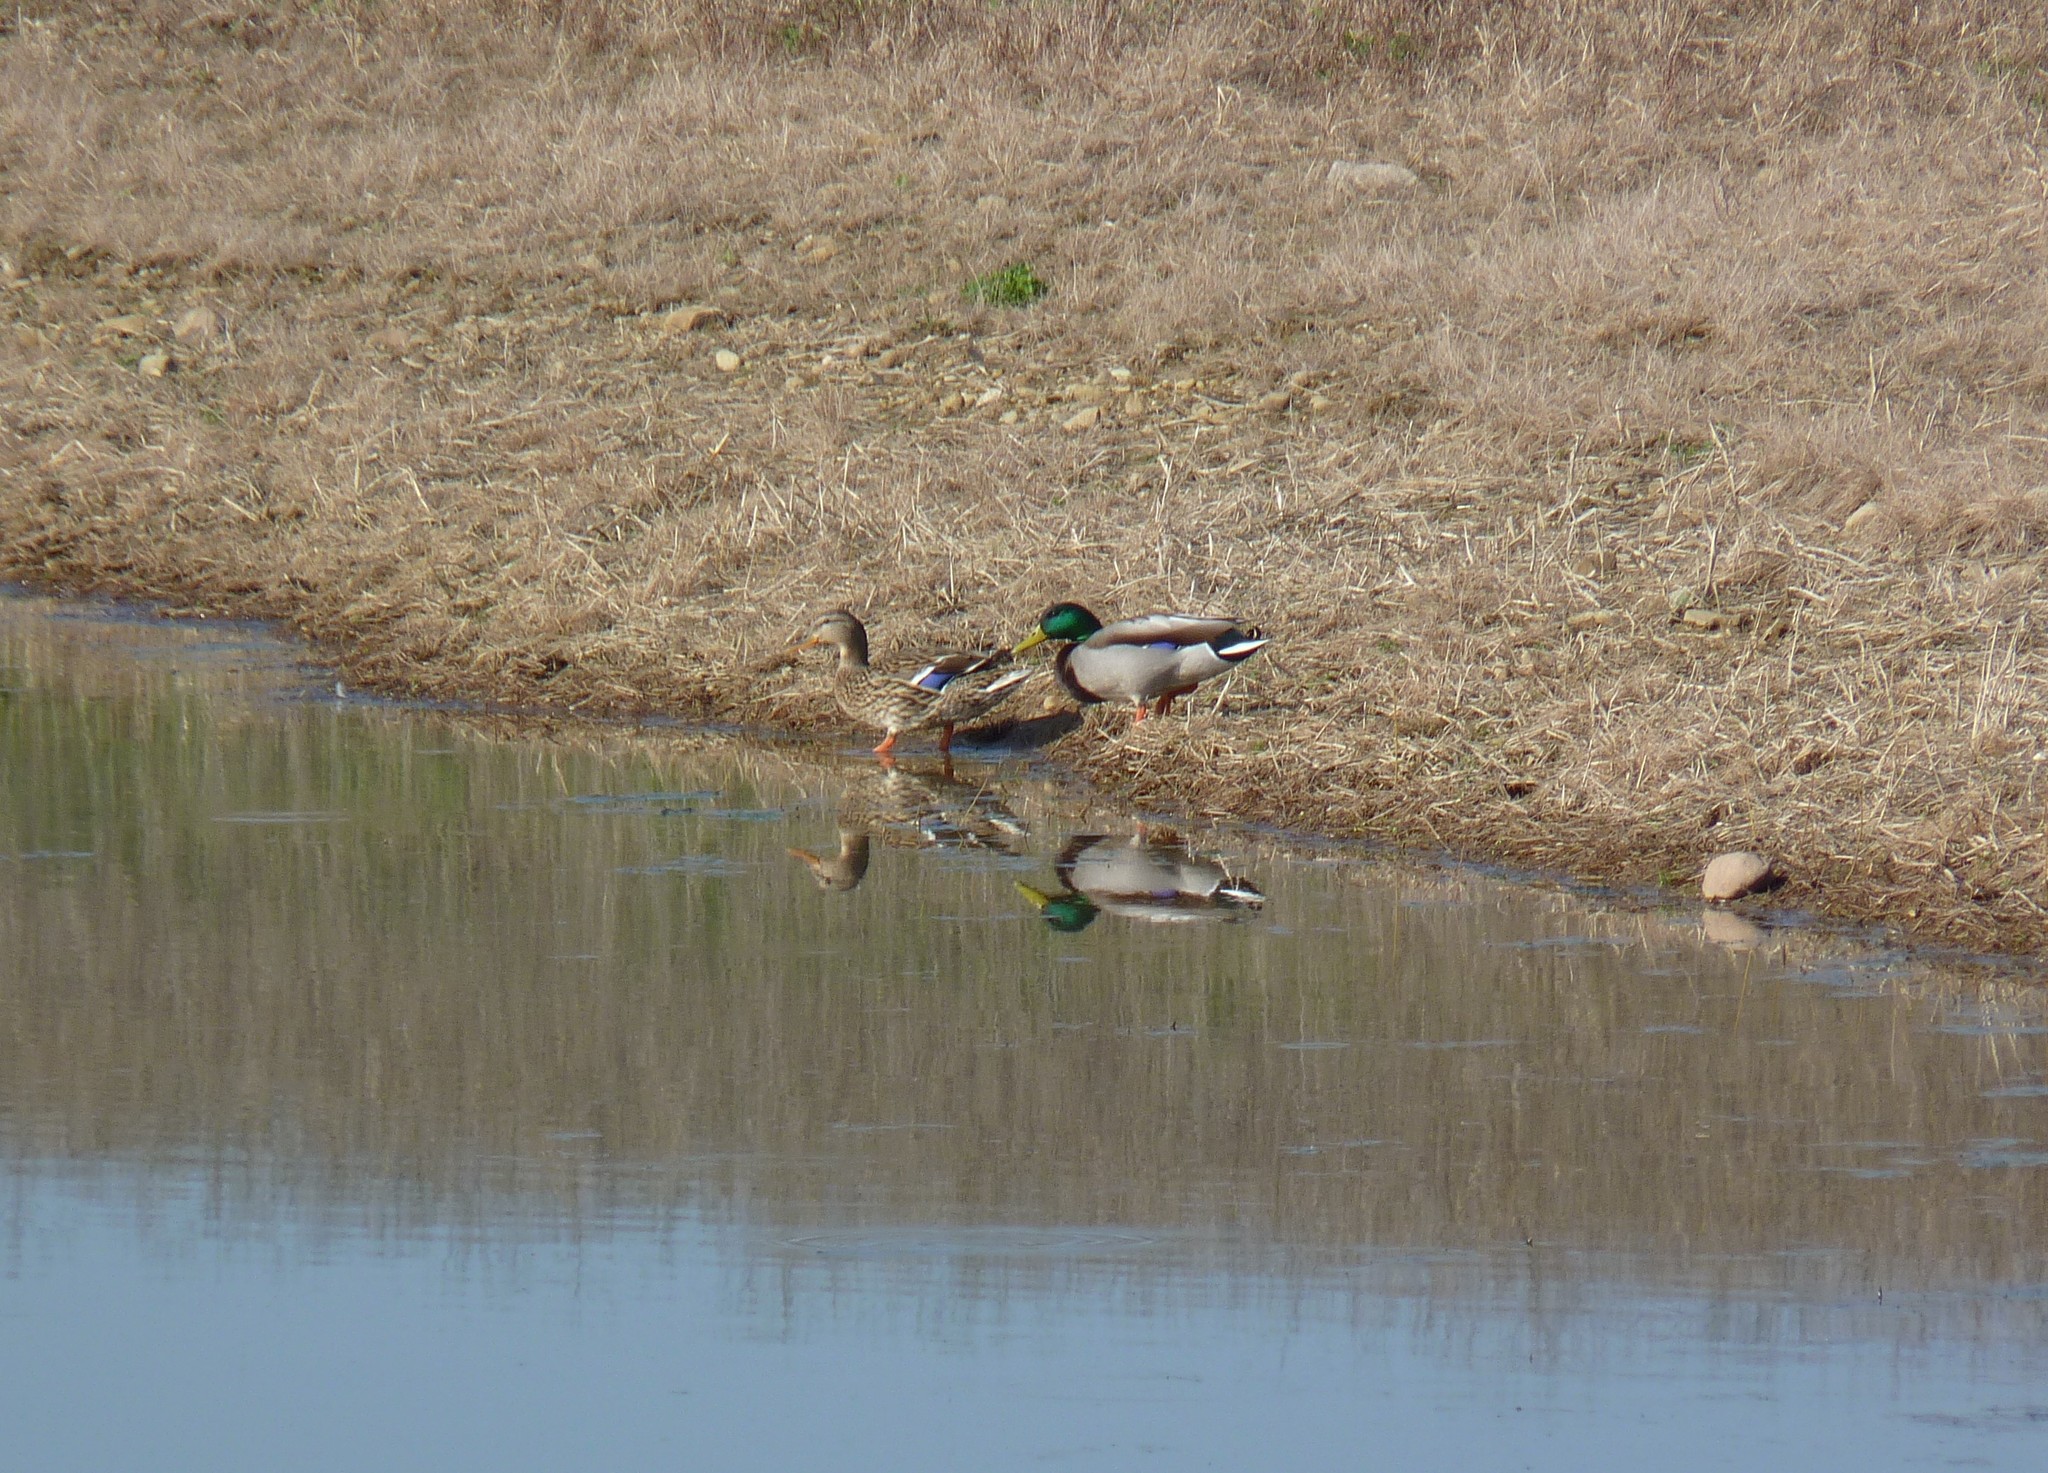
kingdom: Animalia
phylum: Chordata
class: Aves
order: Anseriformes
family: Anatidae
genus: Anas
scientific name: Anas platyrhynchos
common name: Mallard
